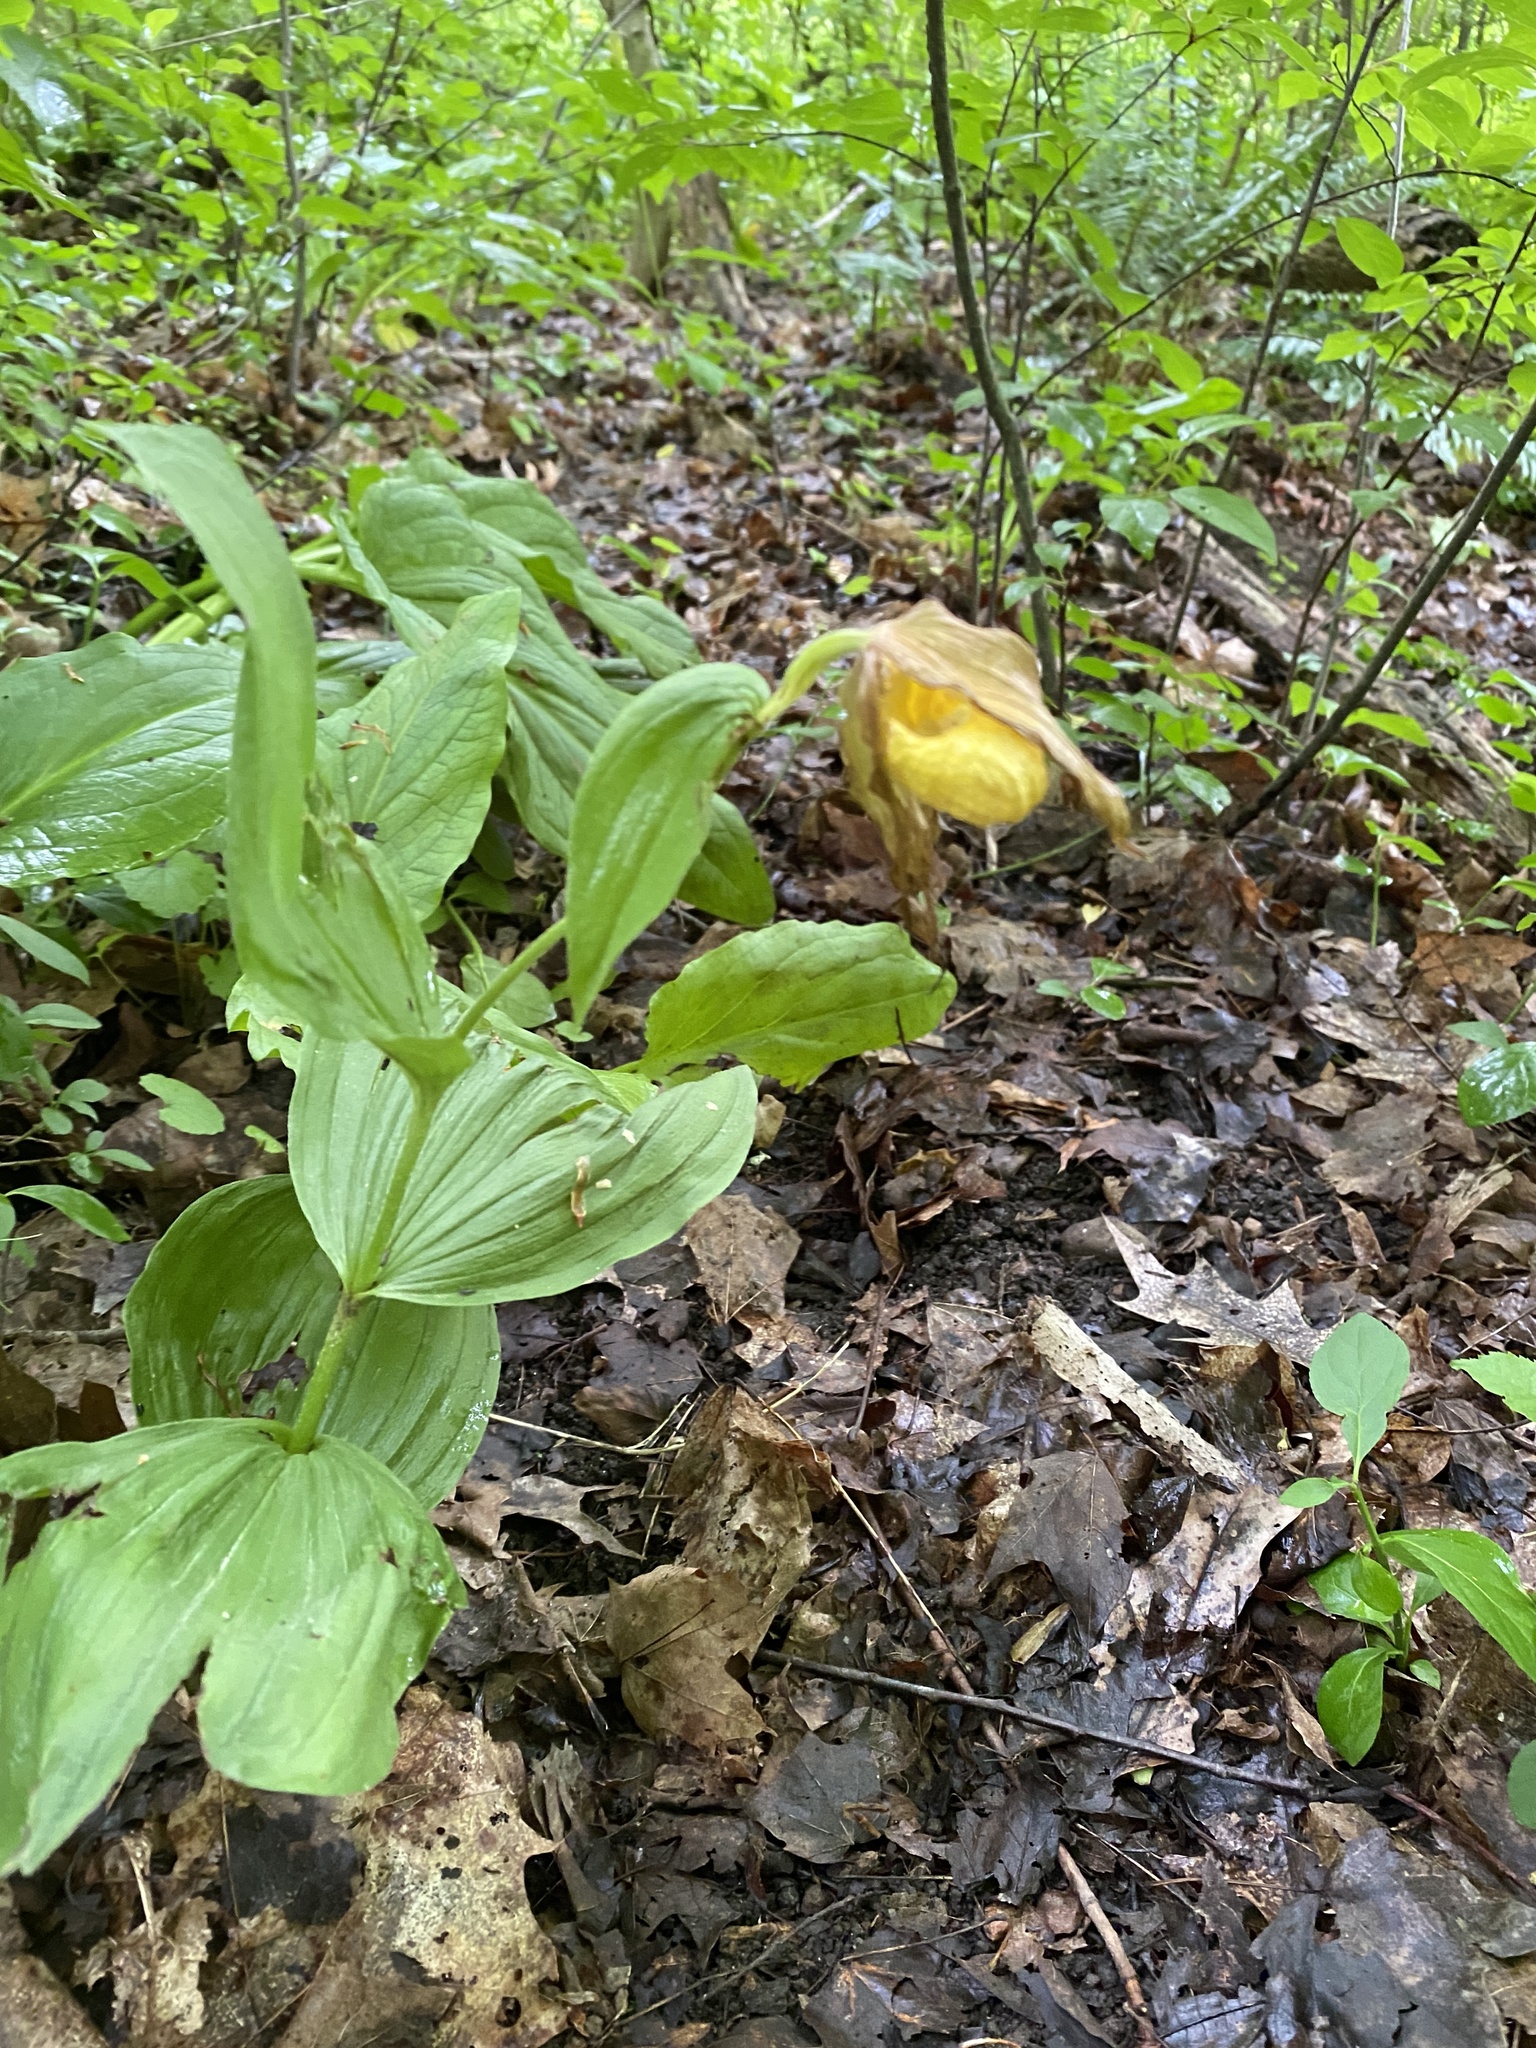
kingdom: Plantae
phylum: Tracheophyta
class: Liliopsida
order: Asparagales
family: Orchidaceae
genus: Cypripedium
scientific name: Cypripedium parviflorum
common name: American yellow lady's-slipper
